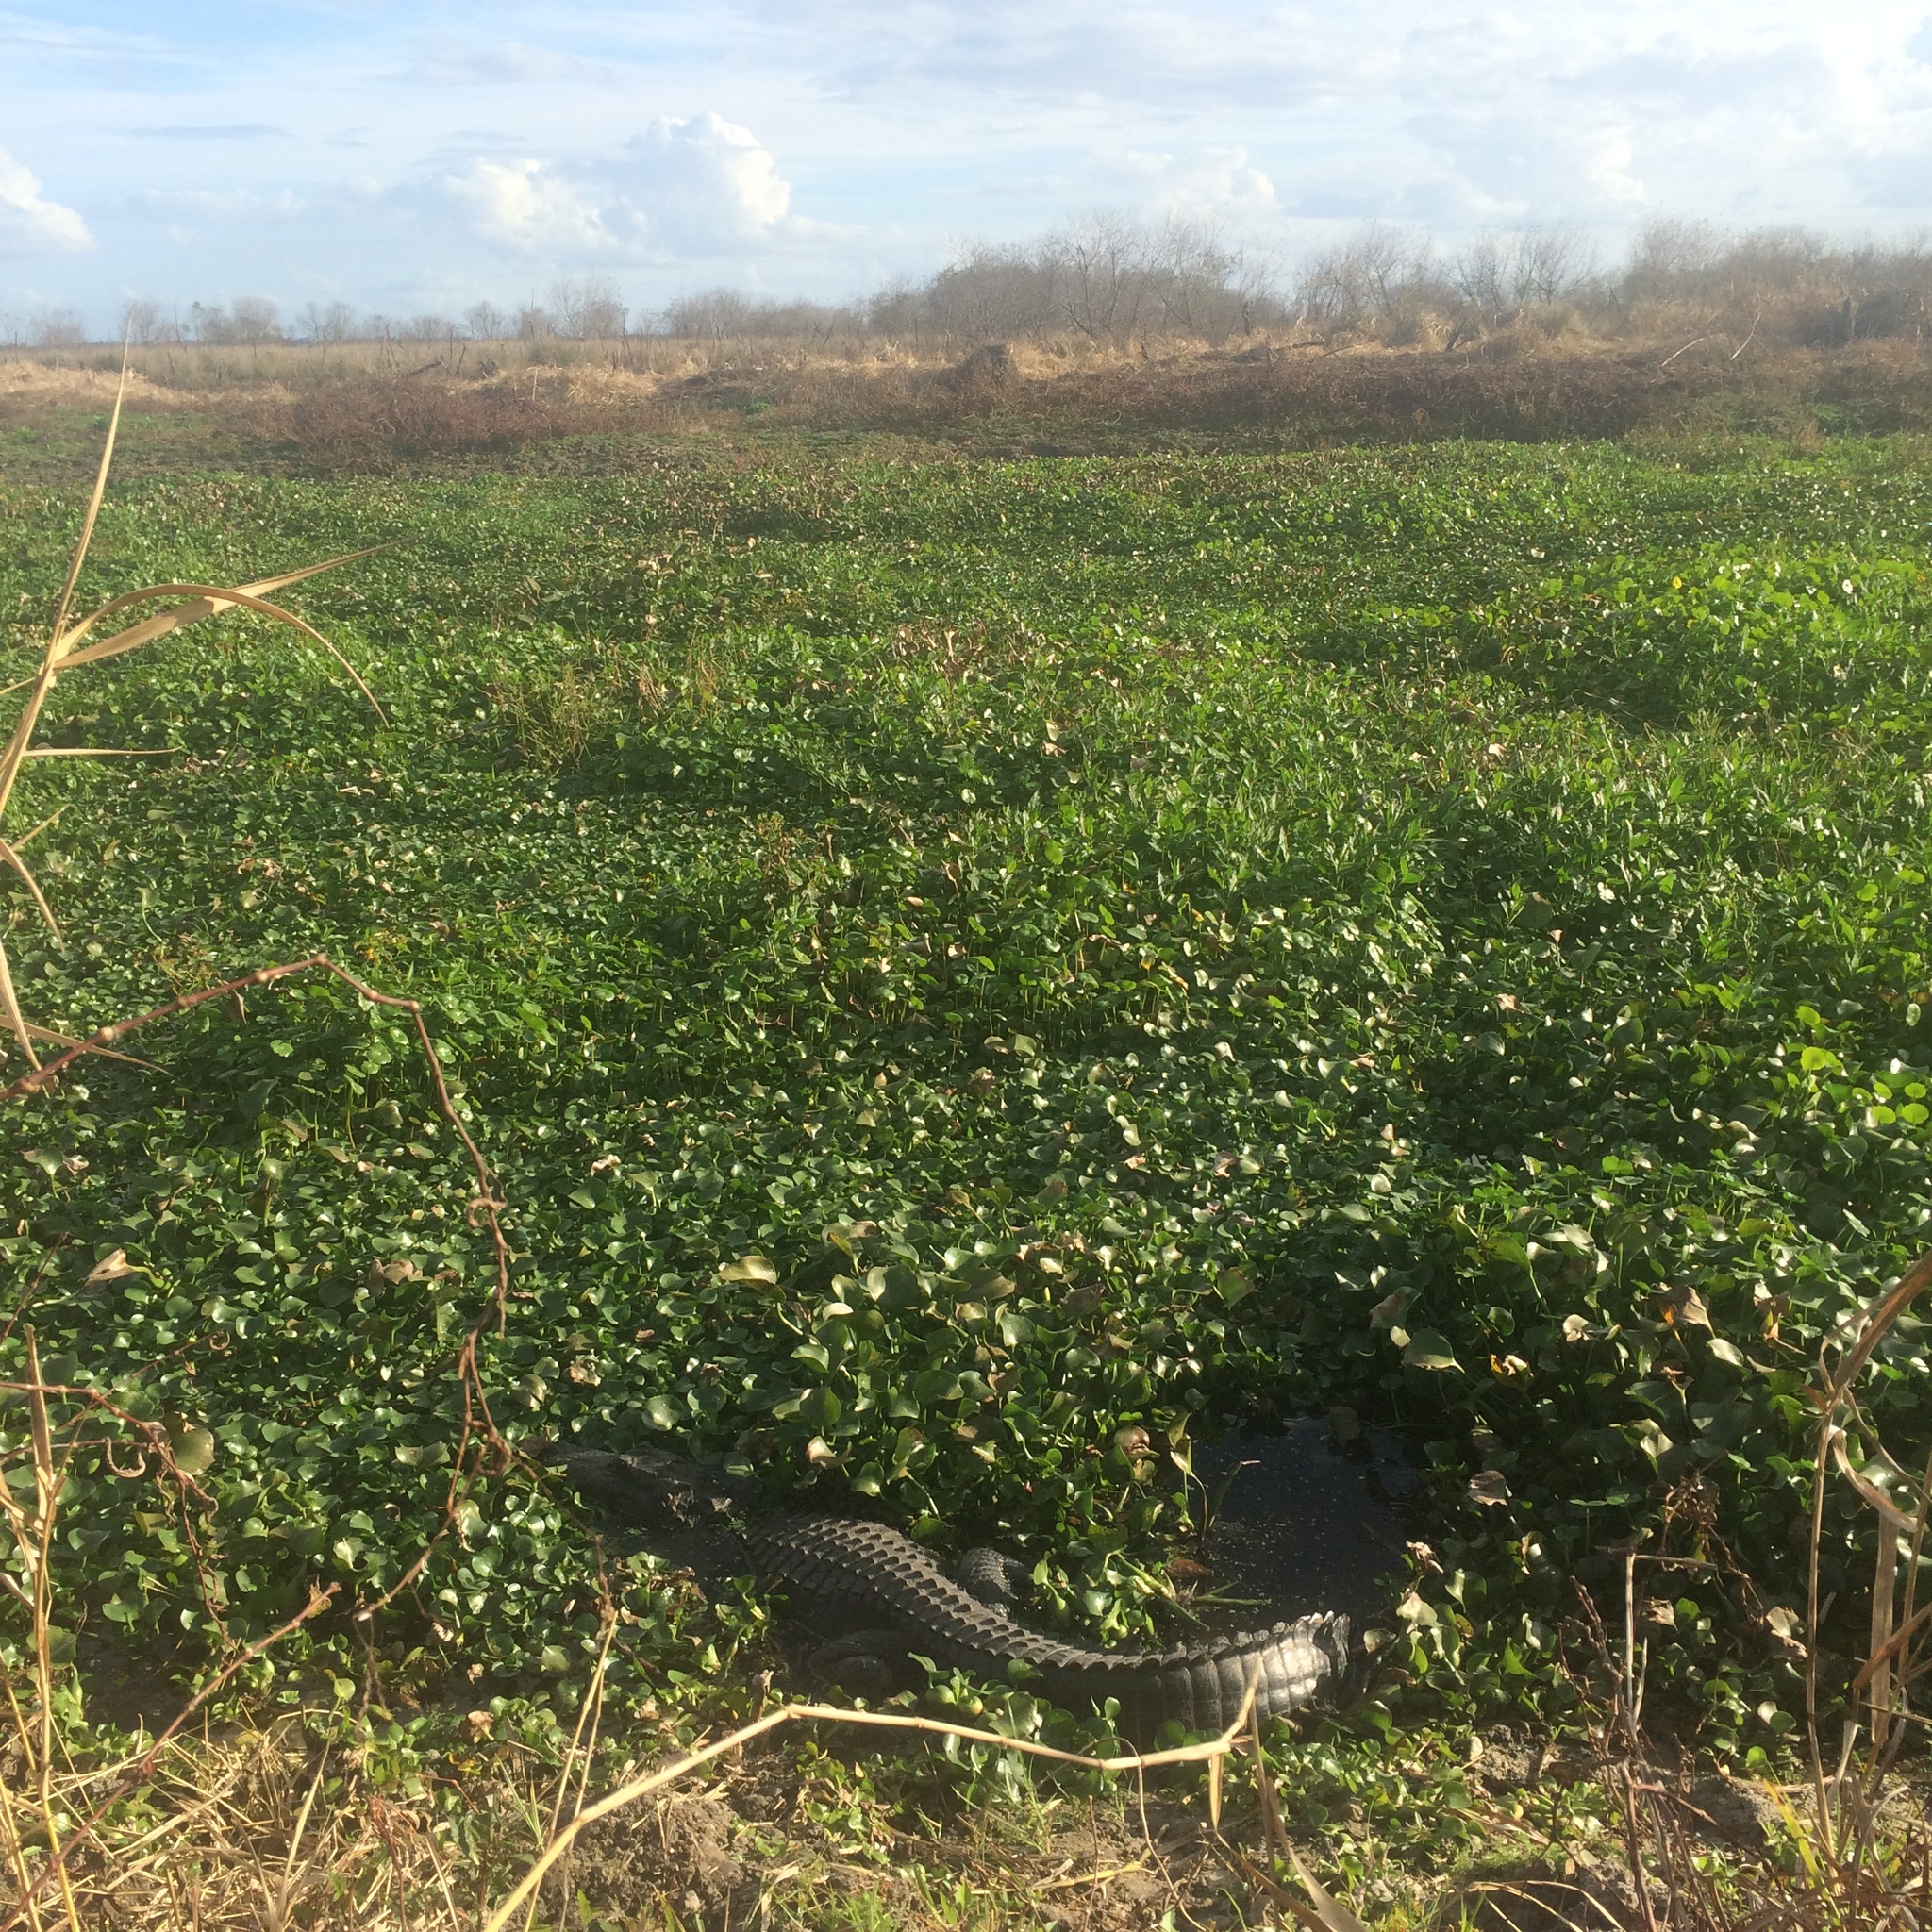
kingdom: Animalia
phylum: Chordata
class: Crocodylia
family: Alligatoridae
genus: Alligator
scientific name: Alligator mississippiensis
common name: American alligator
